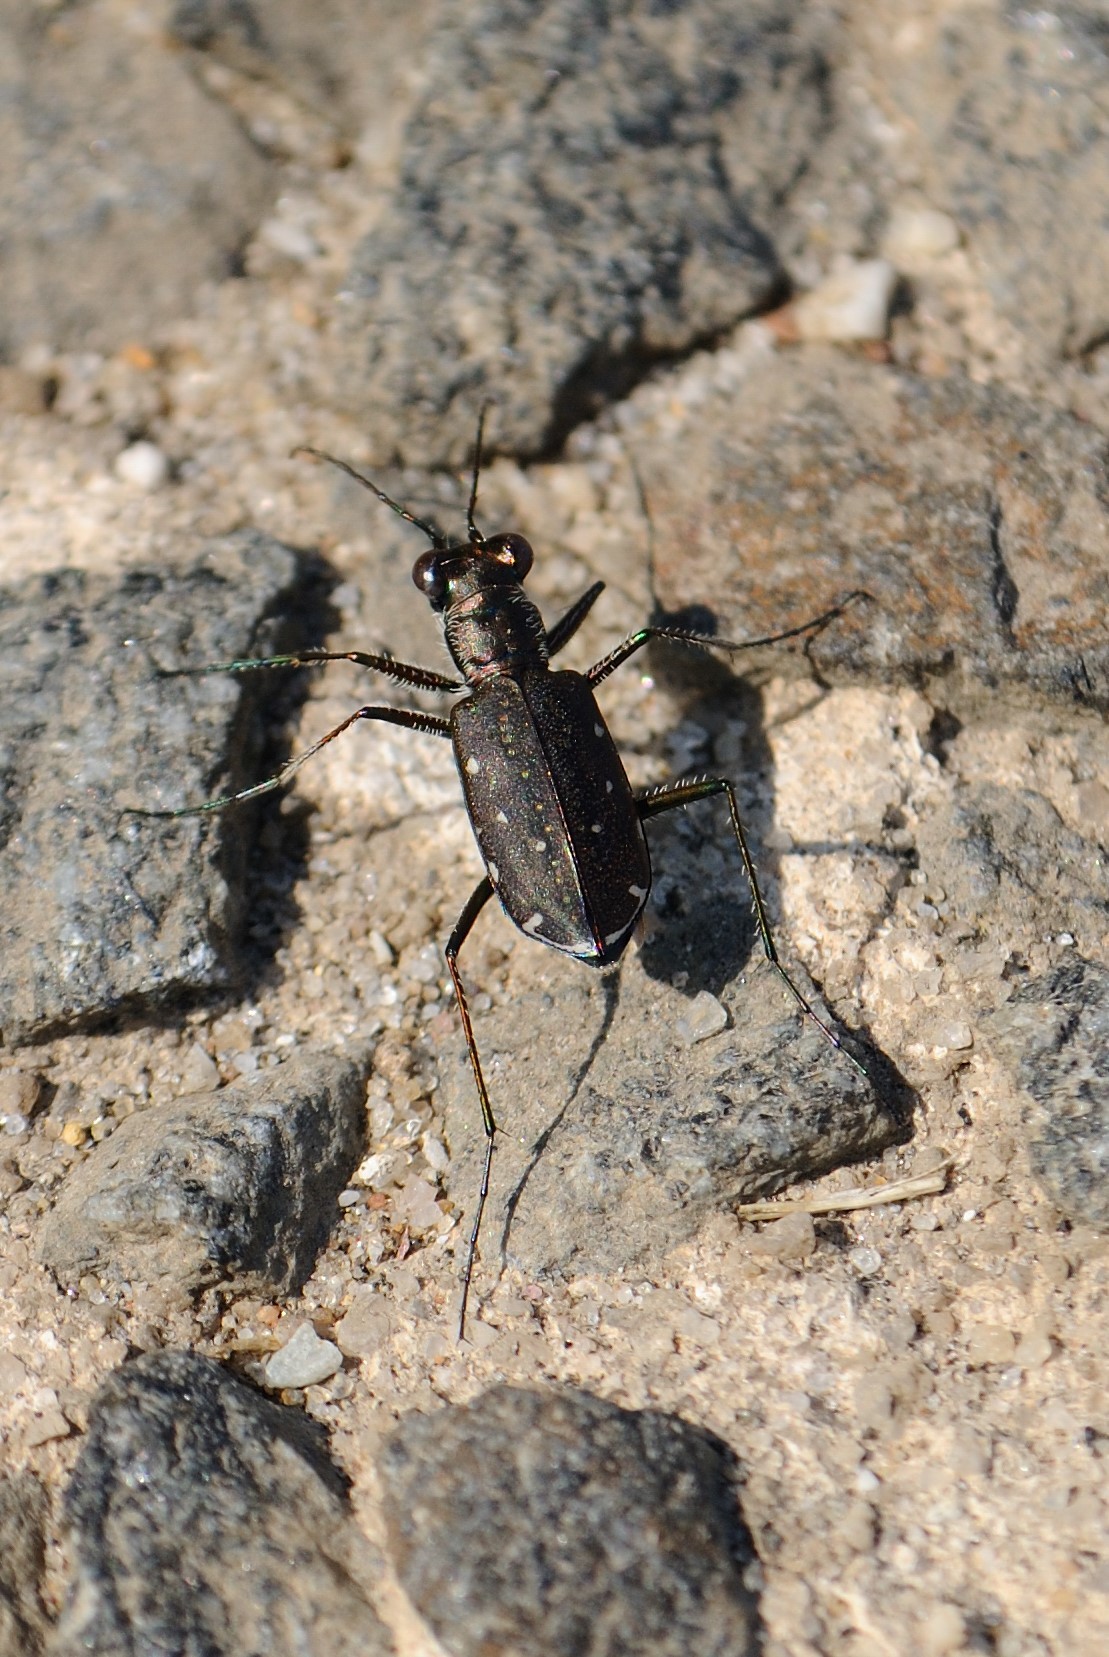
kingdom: Animalia
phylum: Arthropoda
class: Insecta
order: Coleoptera
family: Carabidae
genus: Cicindela
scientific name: Cicindela punctulata
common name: Punctured tiger beetle
